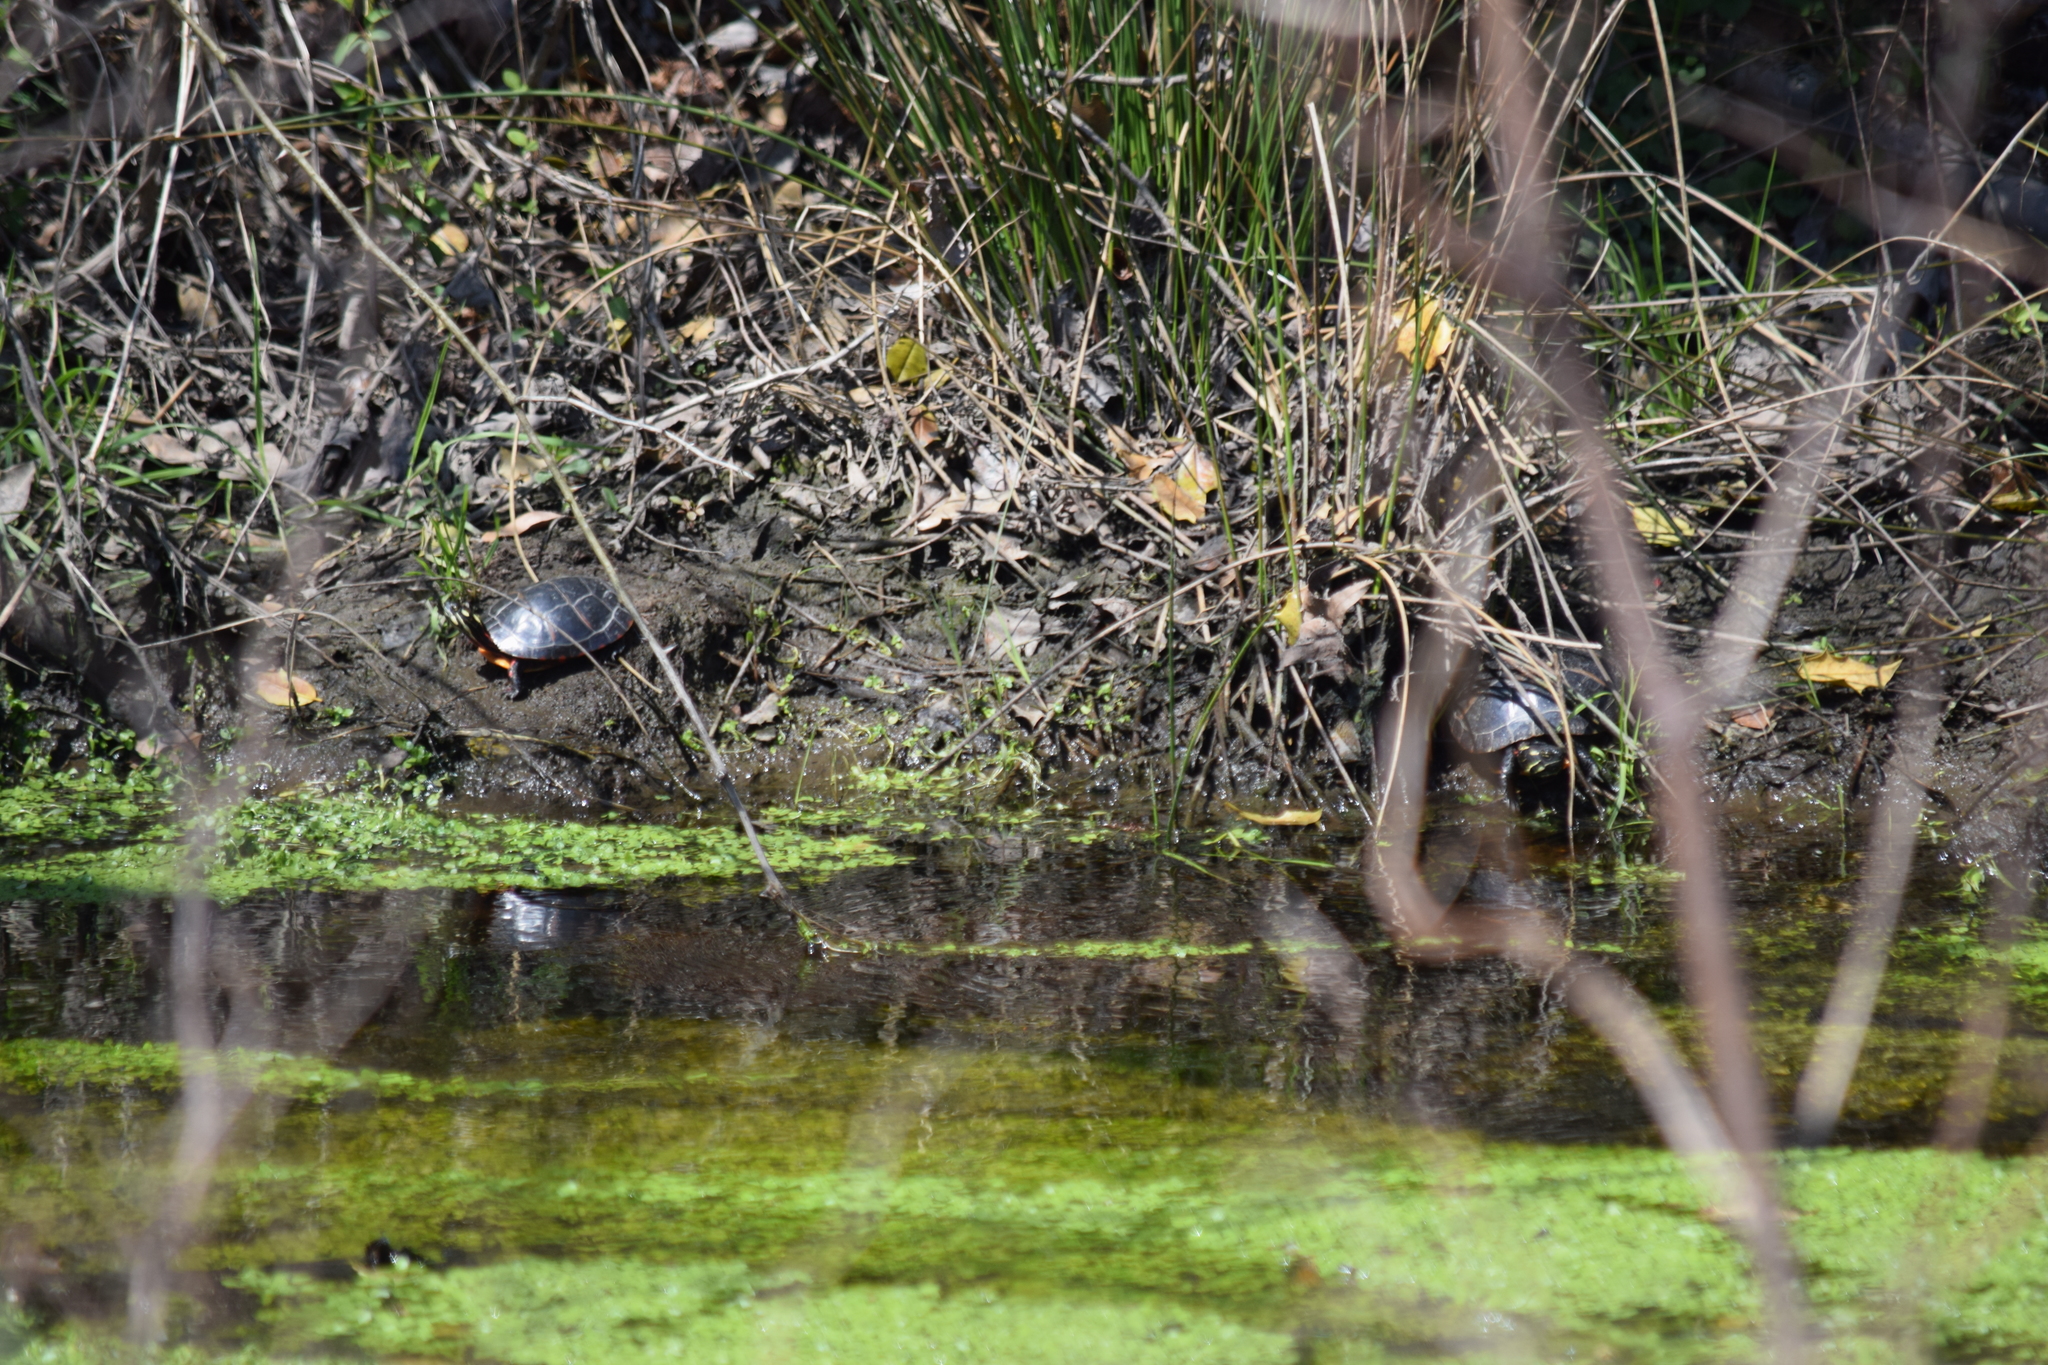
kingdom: Animalia
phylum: Chordata
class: Testudines
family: Emydidae
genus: Chrysemys
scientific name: Chrysemys picta
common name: Painted turtle
